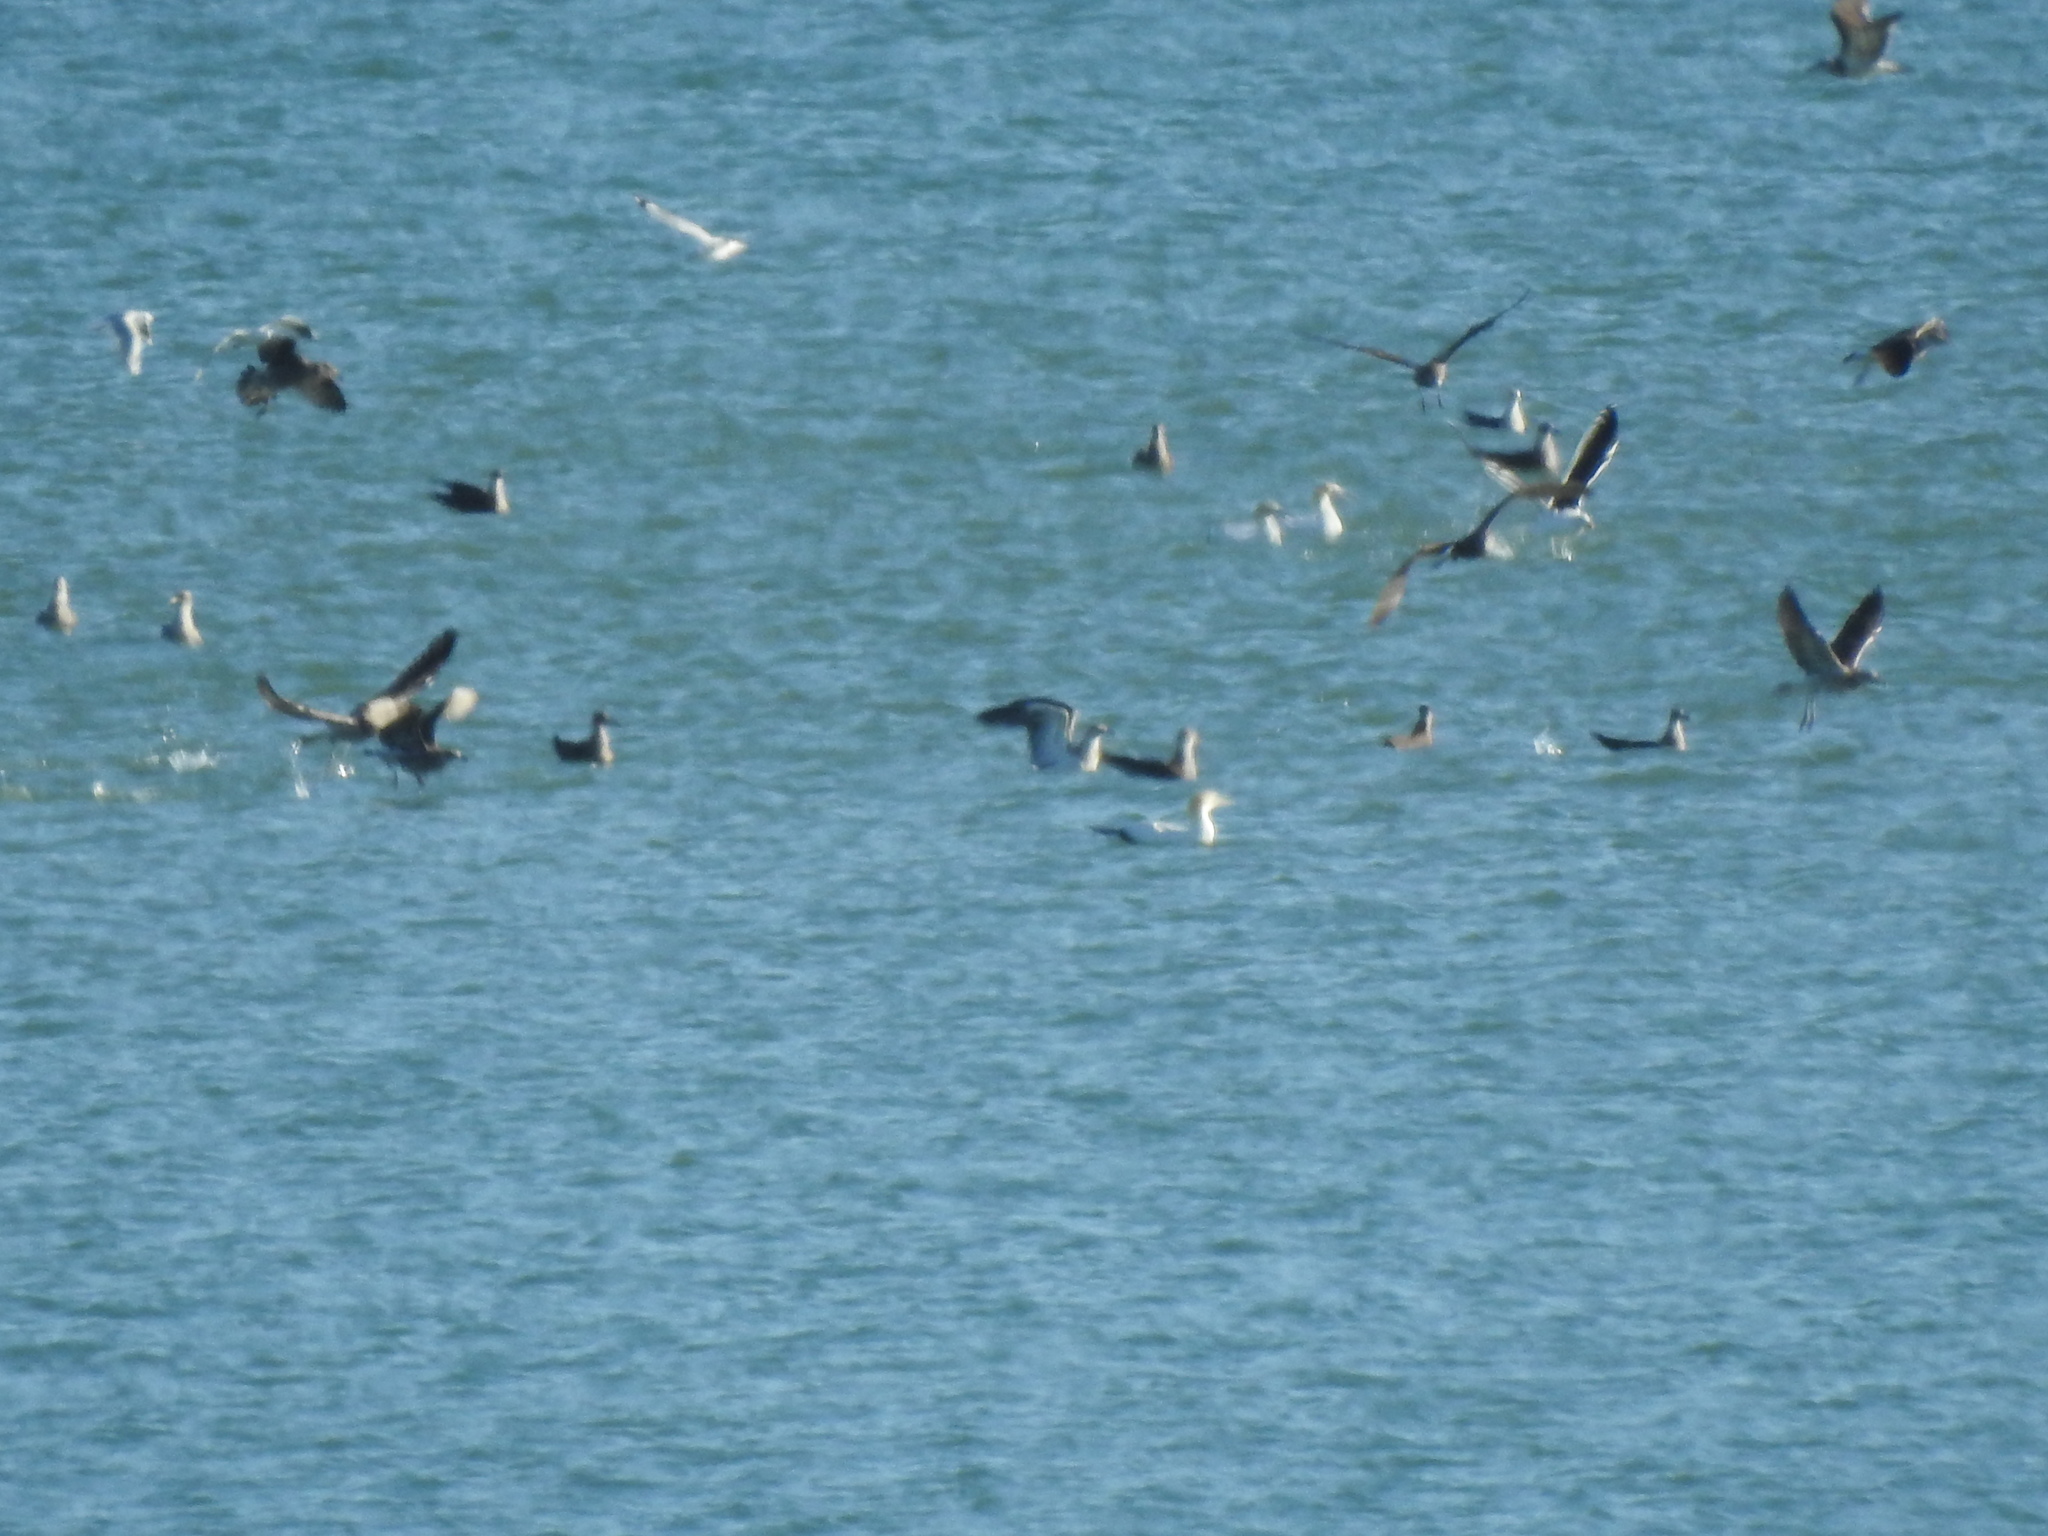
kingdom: Animalia
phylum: Chordata
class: Aves
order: Charadriiformes
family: Laridae
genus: Larus
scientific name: Larus dominicanus
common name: Kelp gull
